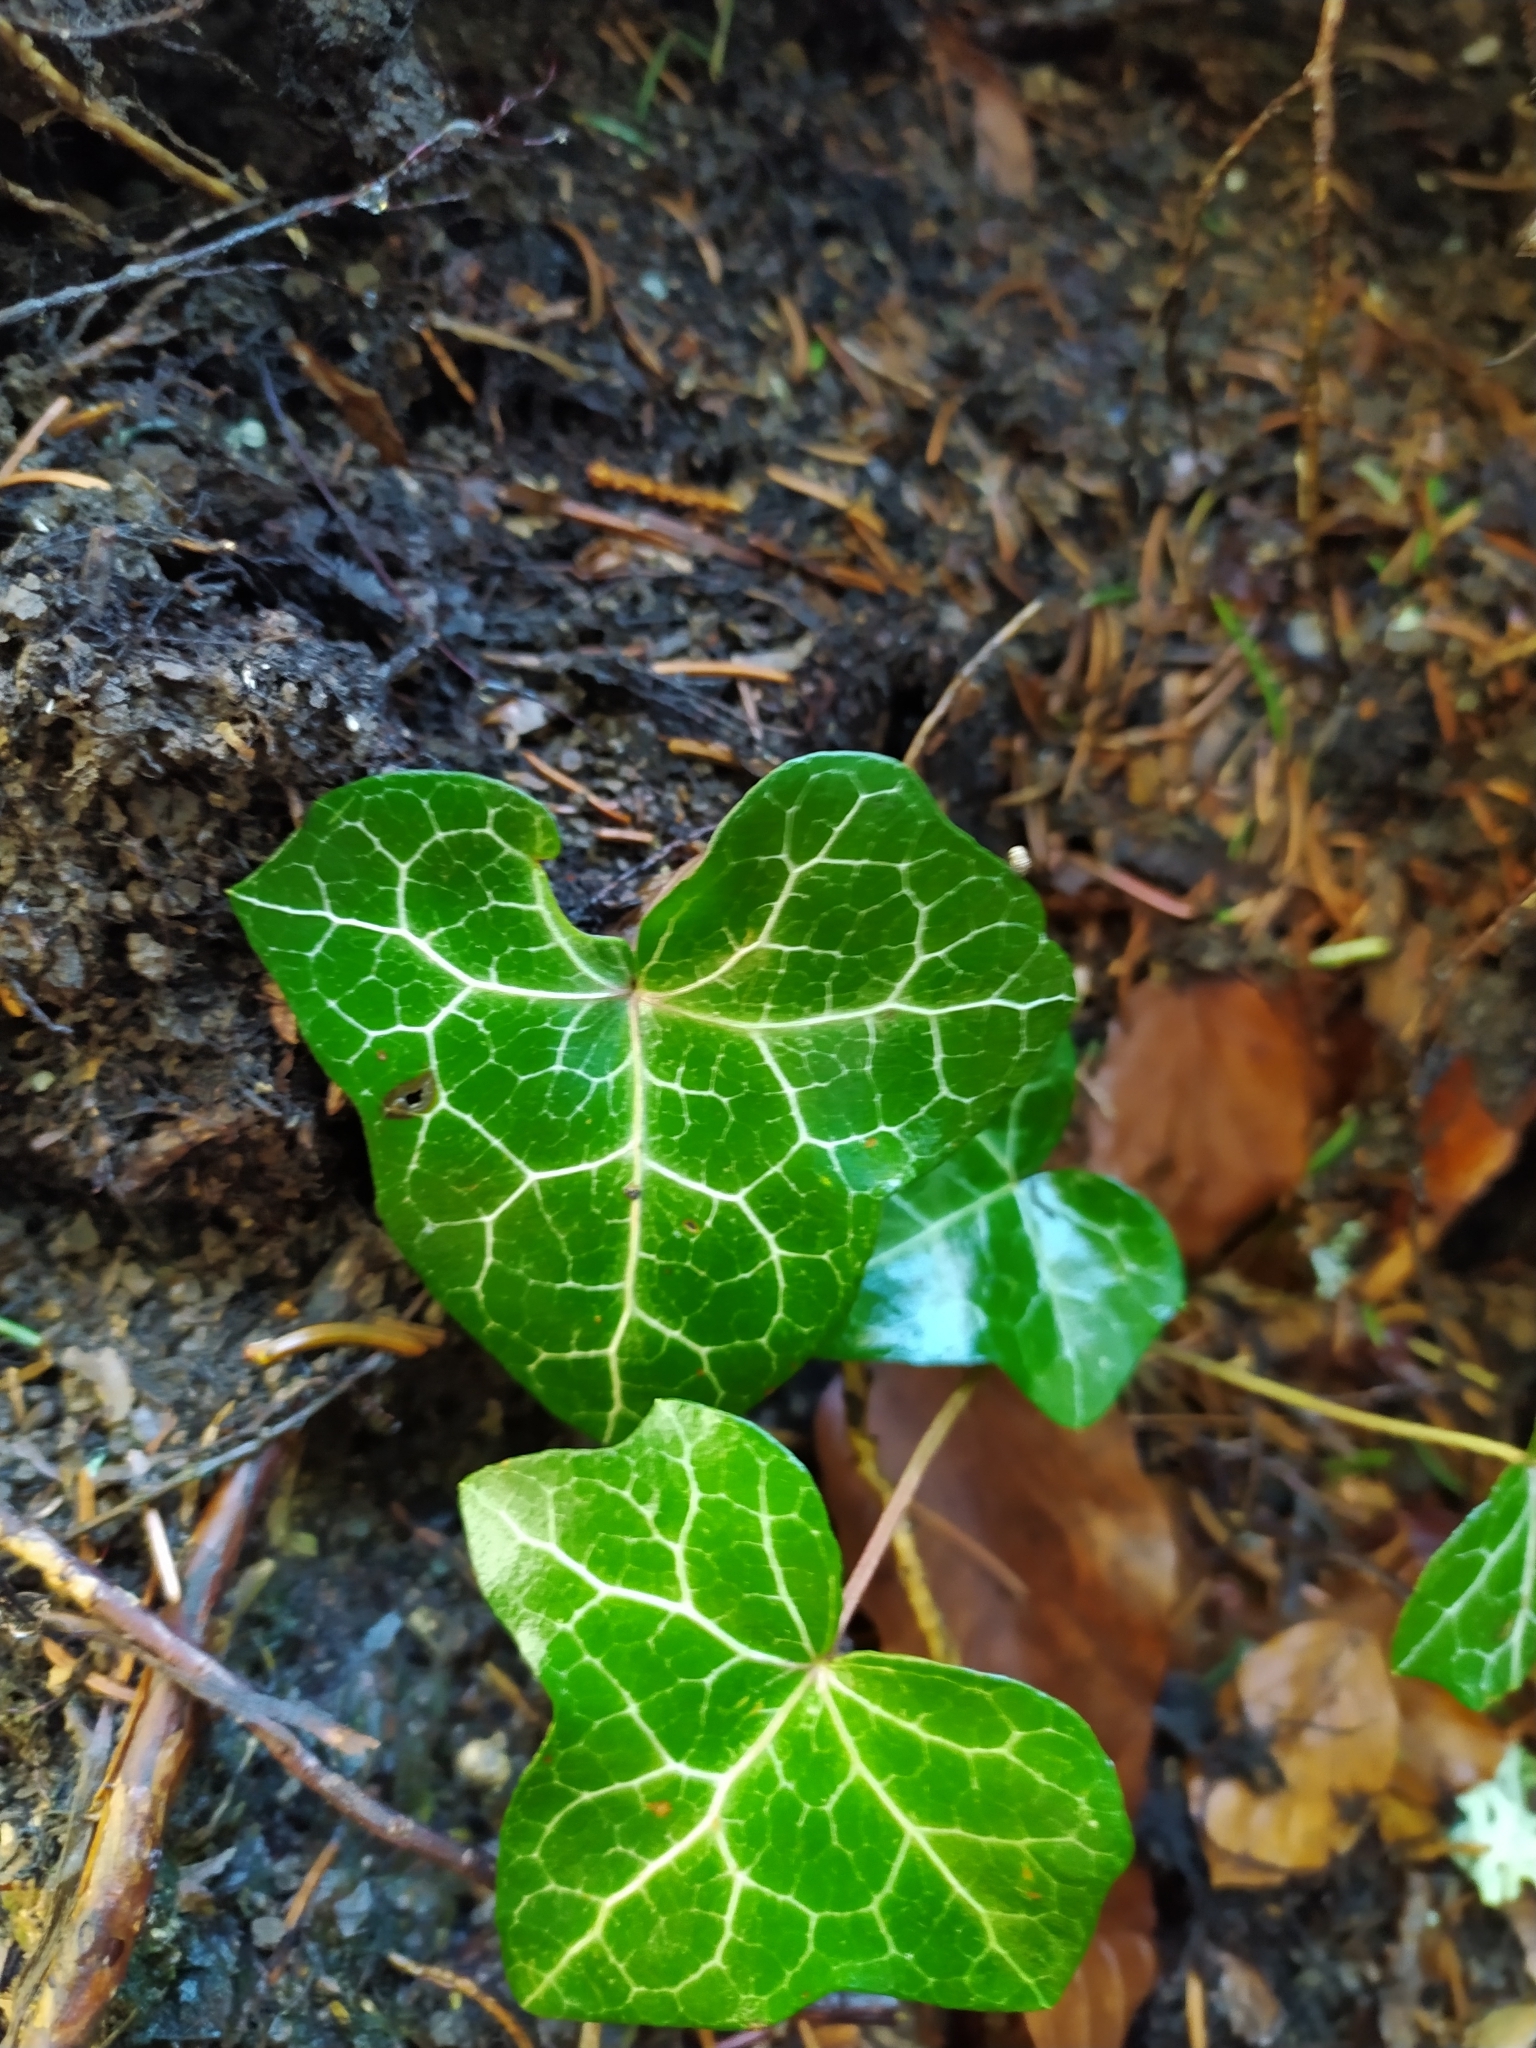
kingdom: Plantae
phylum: Tracheophyta
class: Magnoliopsida
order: Apiales
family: Araliaceae
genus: Hedera
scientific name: Hedera helix
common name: Ivy
